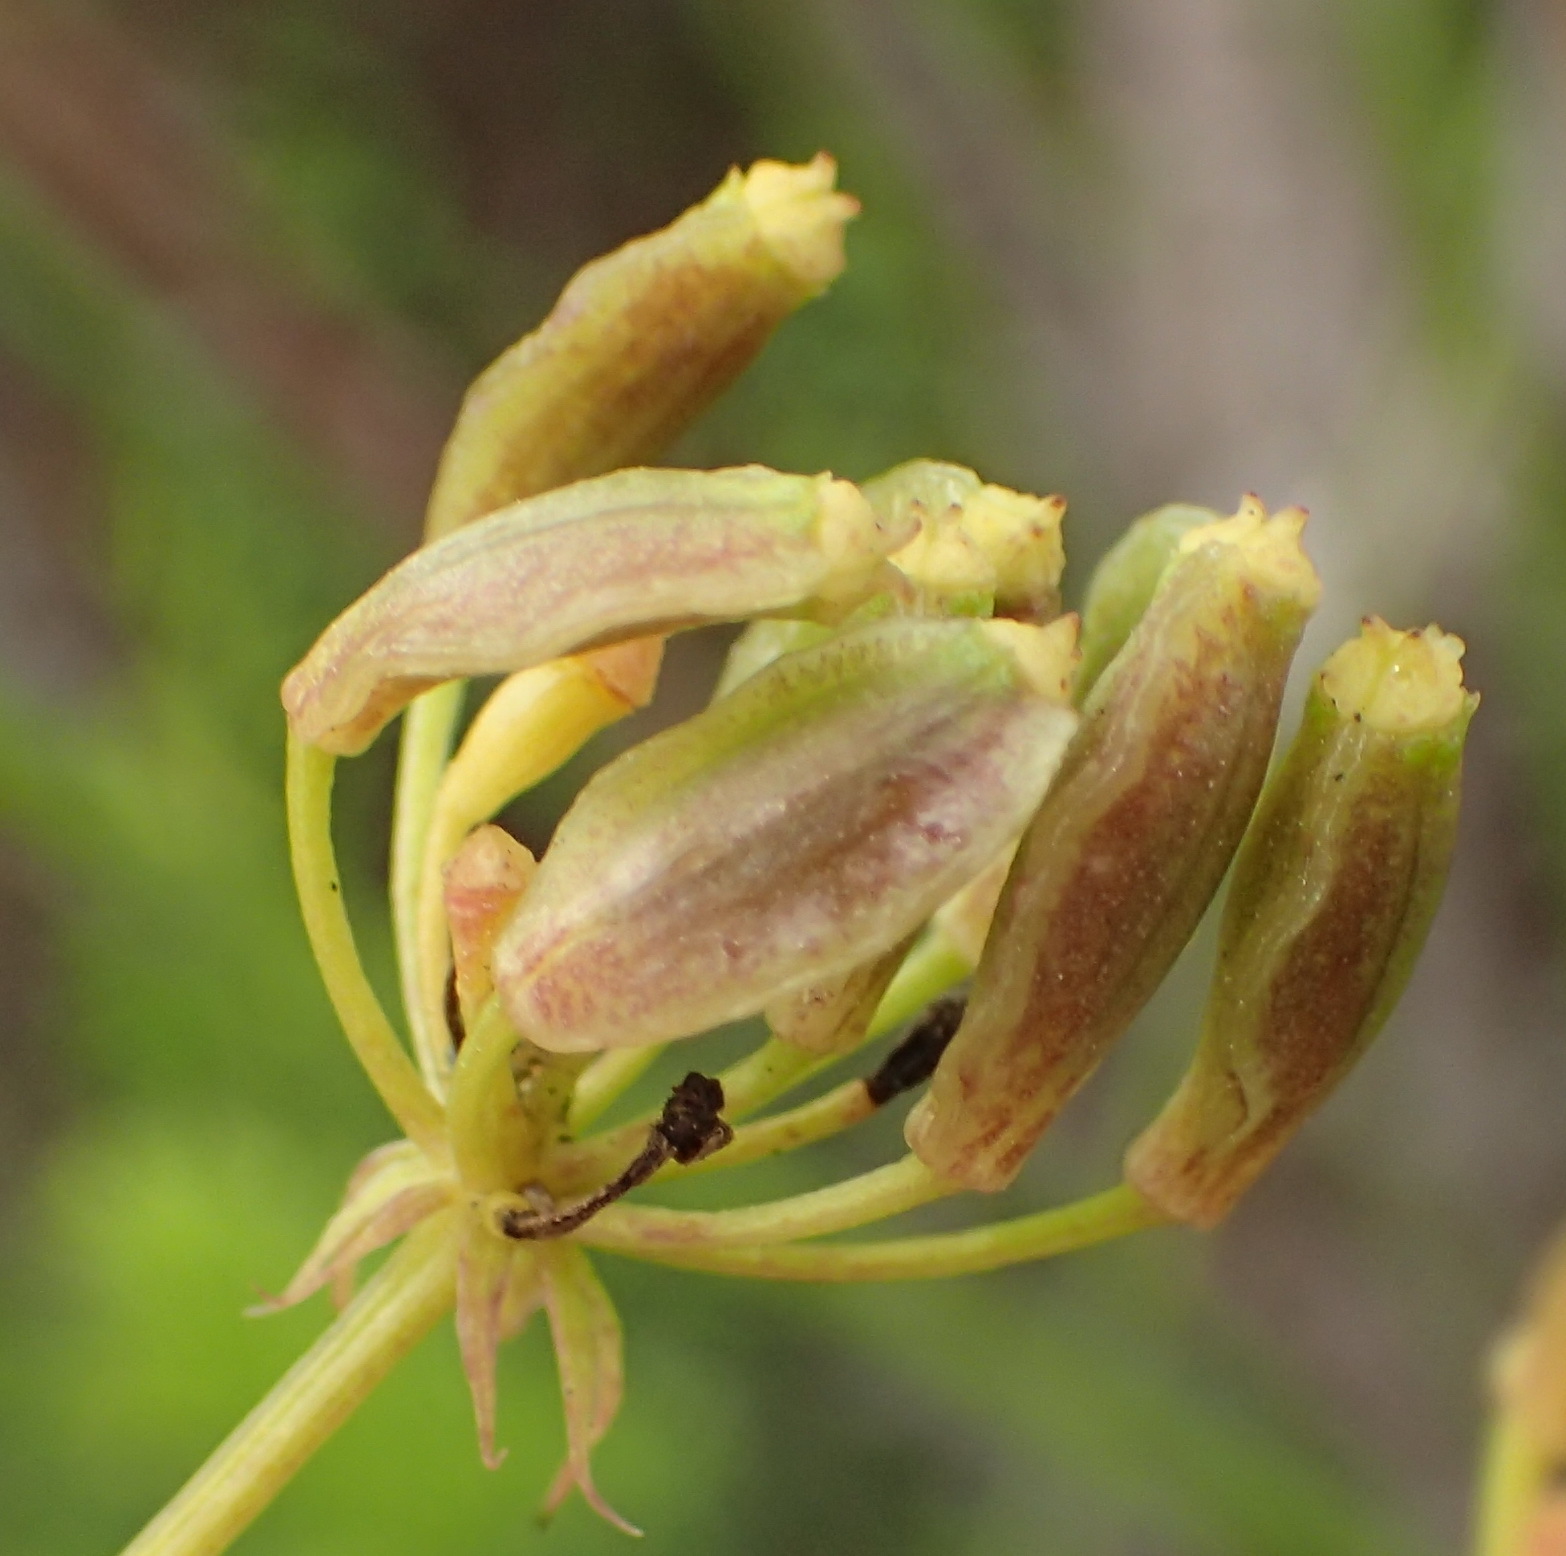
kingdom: Plantae
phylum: Tracheophyta
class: Magnoliopsida
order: Apiales
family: Apiaceae
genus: Notobubon
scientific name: Notobubon ferulaceum
